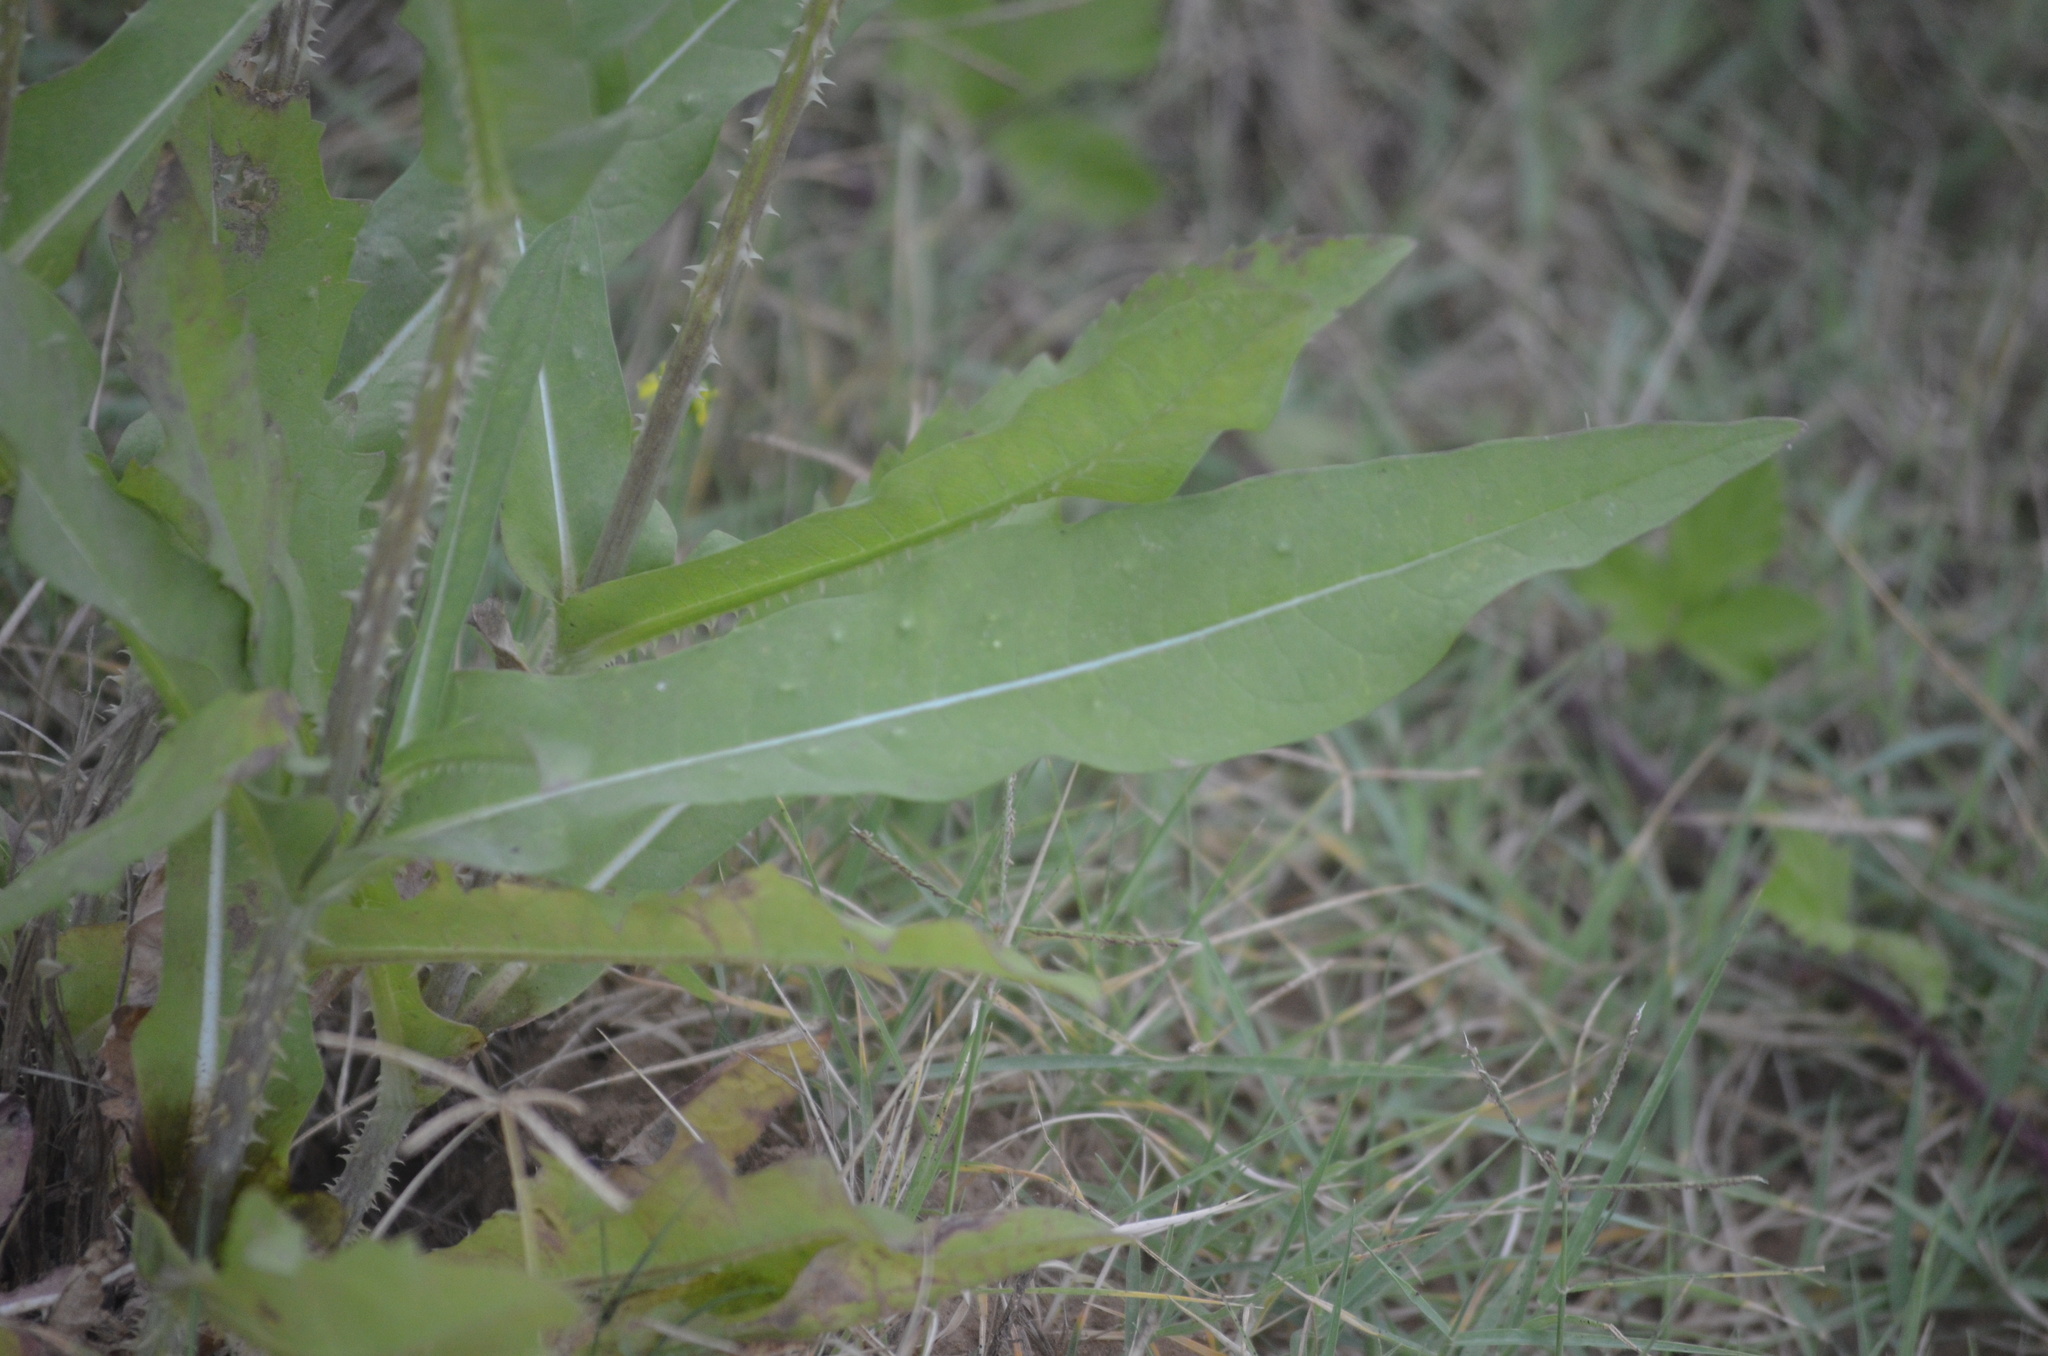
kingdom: Plantae
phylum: Tracheophyta
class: Magnoliopsida
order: Dipsacales
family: Caprifoliaceae
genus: Dipsacus
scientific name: Dipsacus fullonum
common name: Teasel
